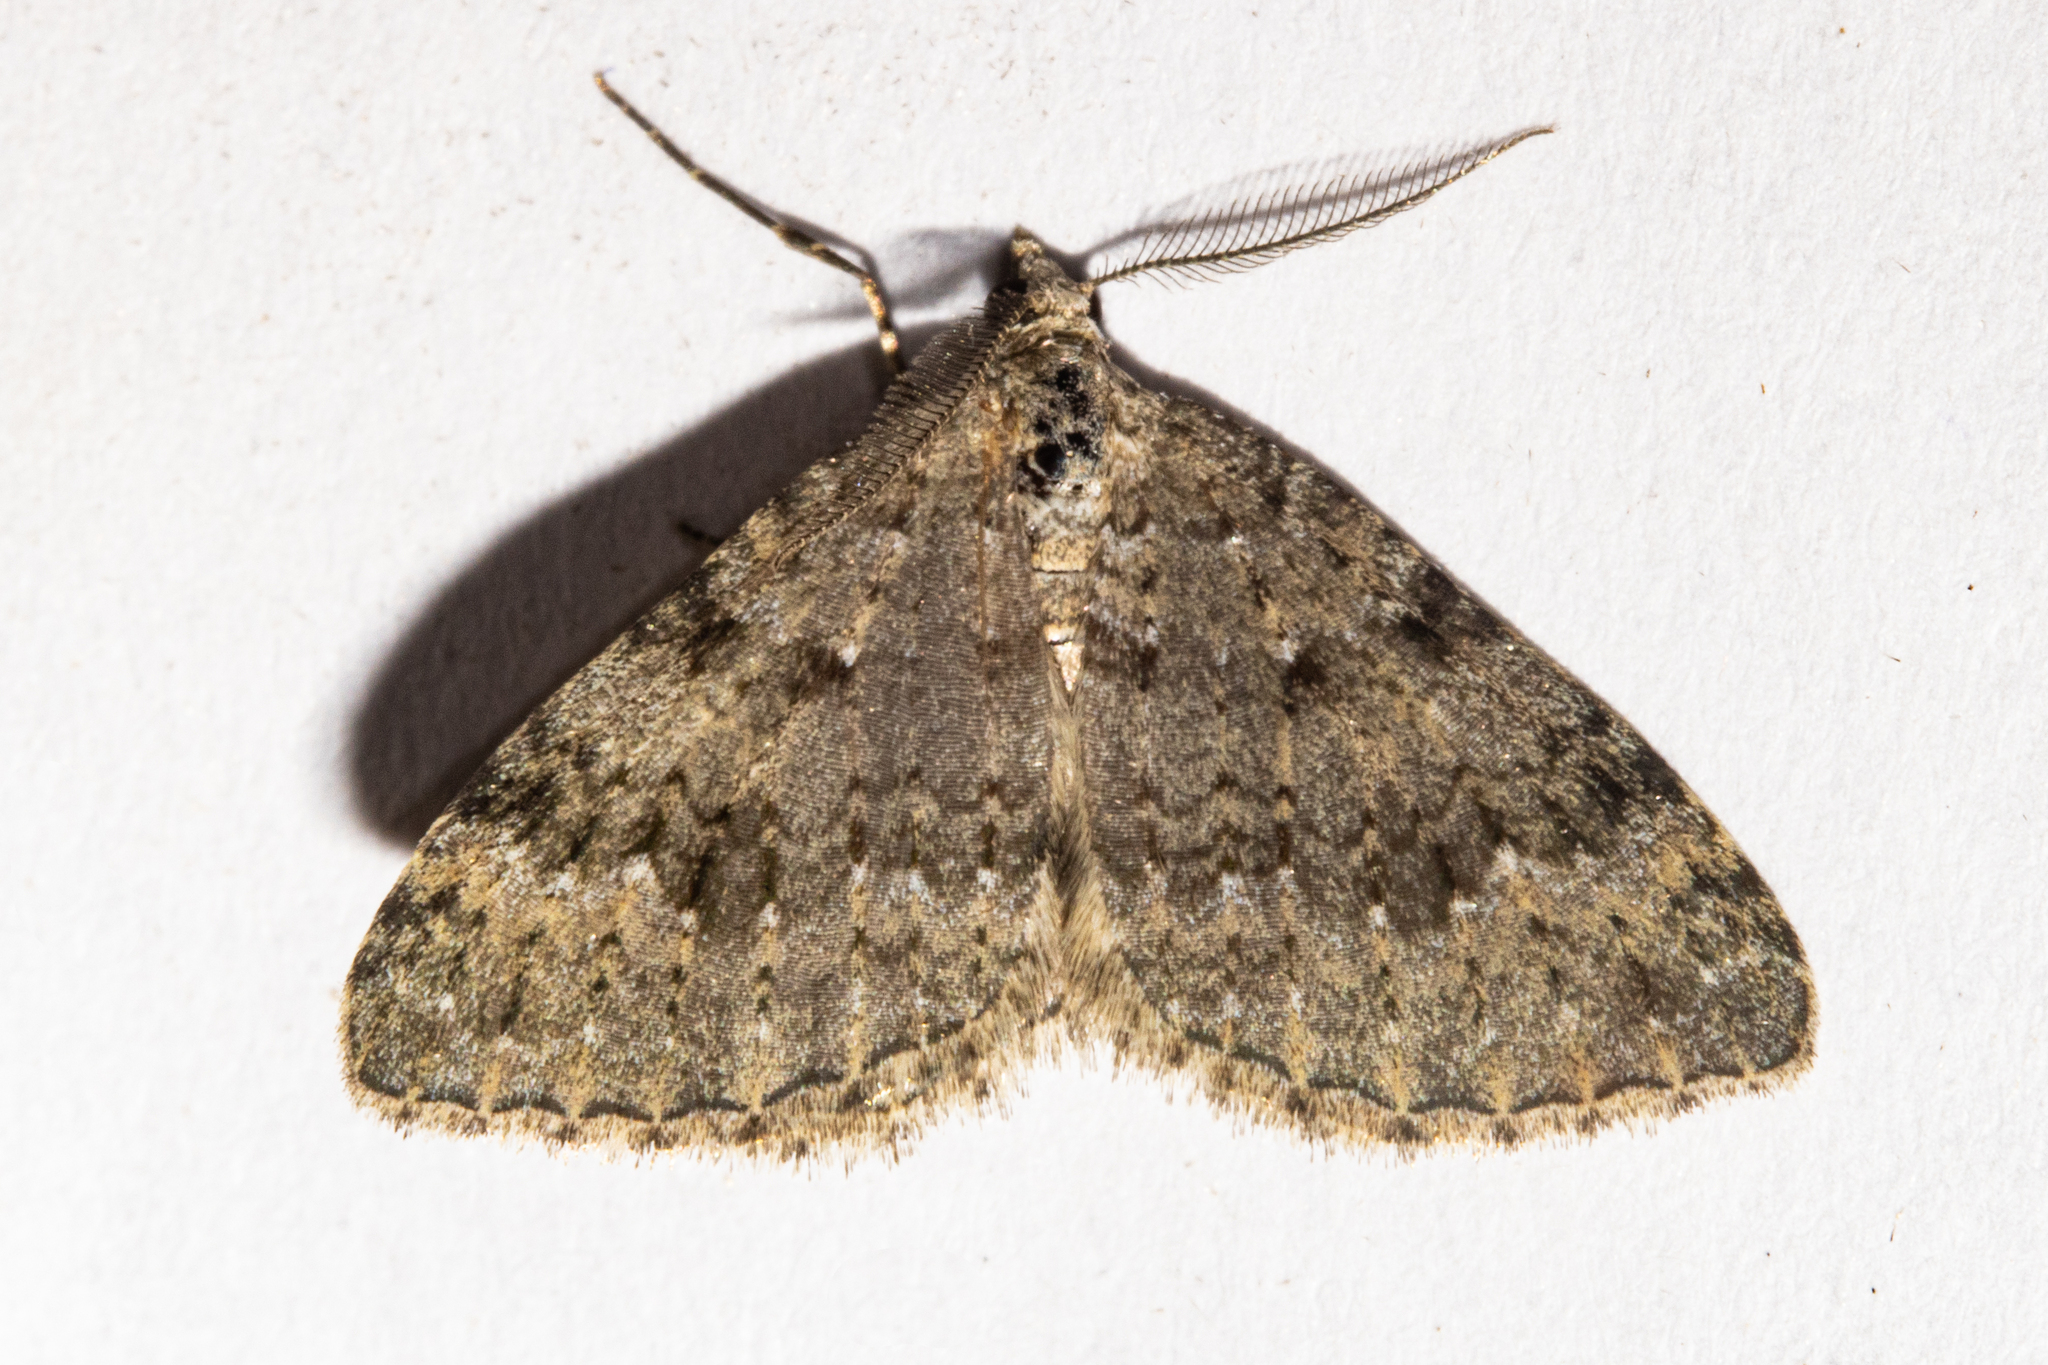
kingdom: Animalia
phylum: Arthropoda
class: Insecta
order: Lepidoptera
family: Geometridae
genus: Helastia
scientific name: Helastia corcularia
